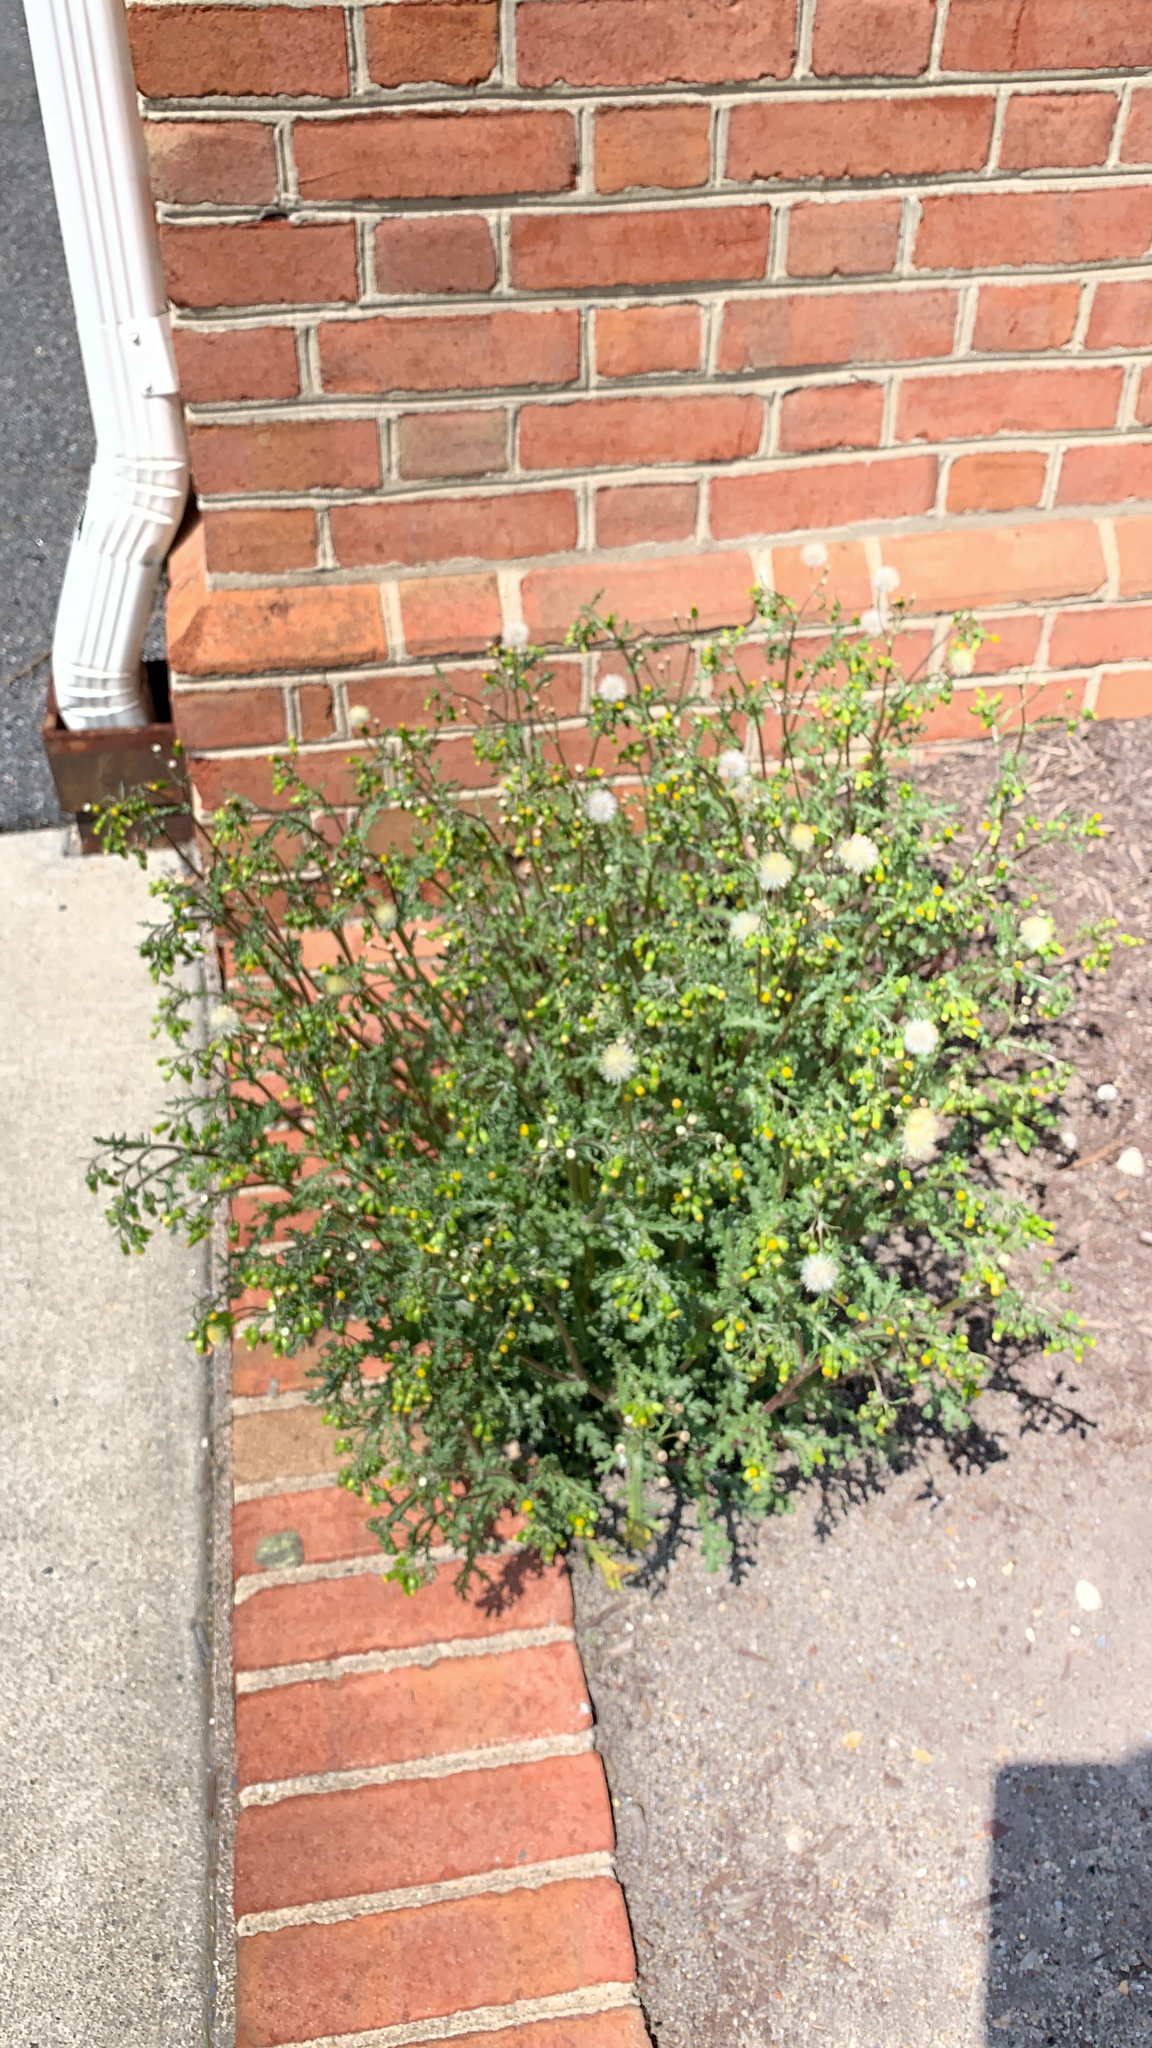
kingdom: Plantae
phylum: Tracheophyta
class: Magnoliopsida
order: Asterales
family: Asteraceae
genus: Senecio
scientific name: Senecio vulgaris
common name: Old-man-in-the-spring
